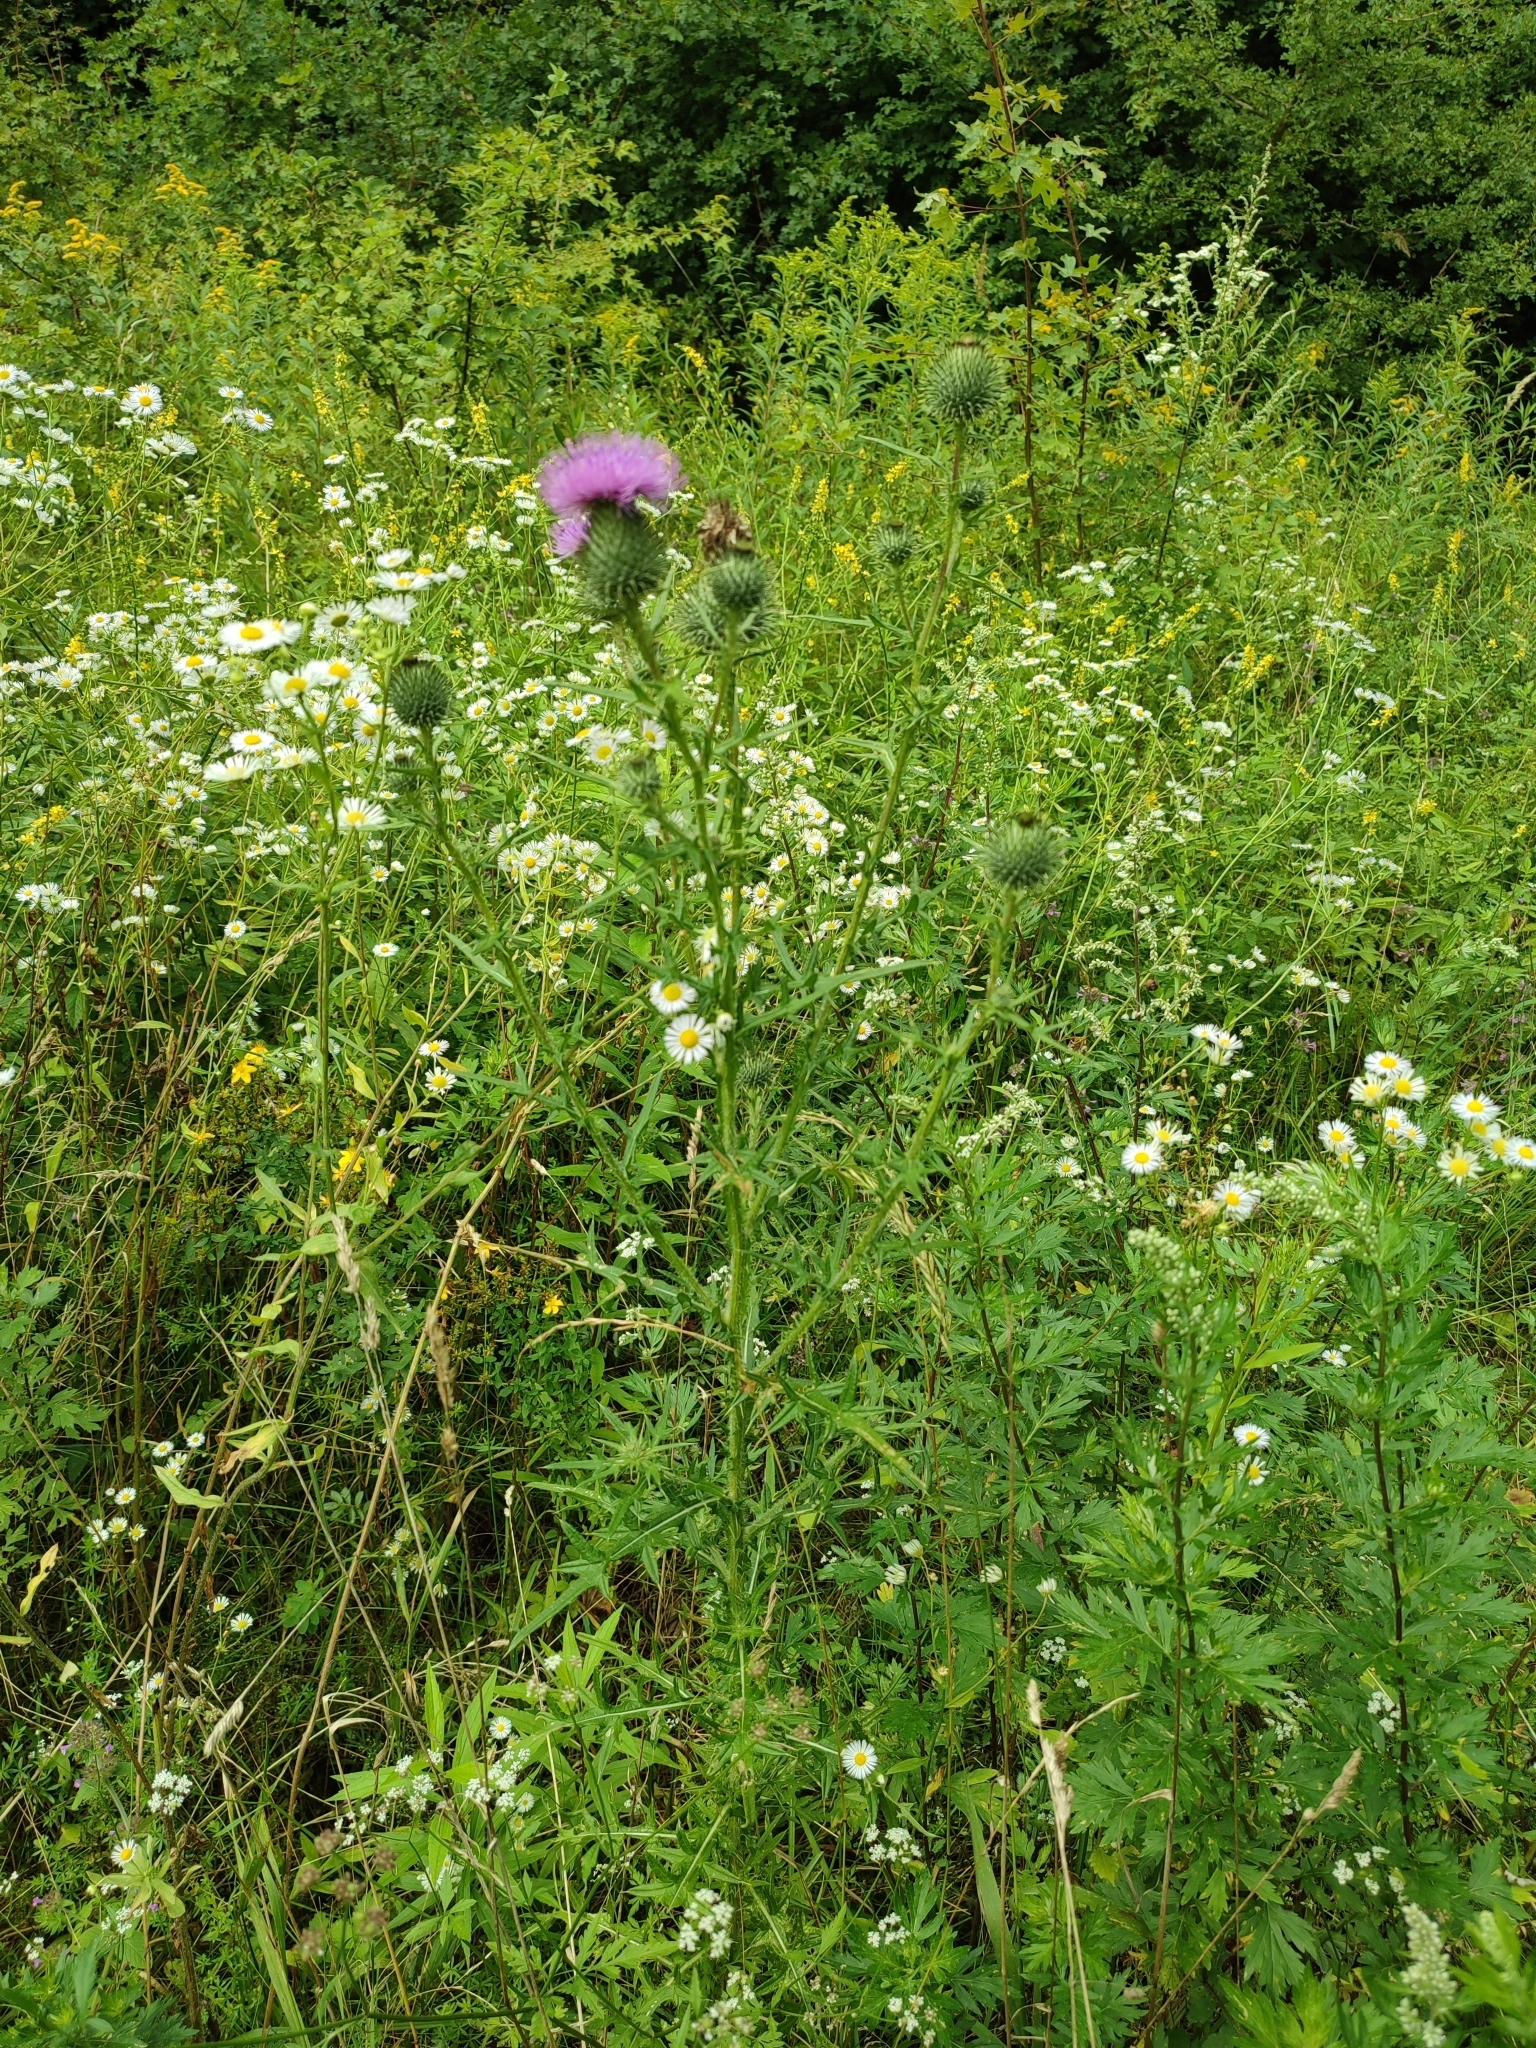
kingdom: Plantae
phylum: Tracheophyta
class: Magnoliopsida
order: Asterales
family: Asteraceae
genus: Cirsium
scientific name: Cirsium vulgare
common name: Bull thistle
